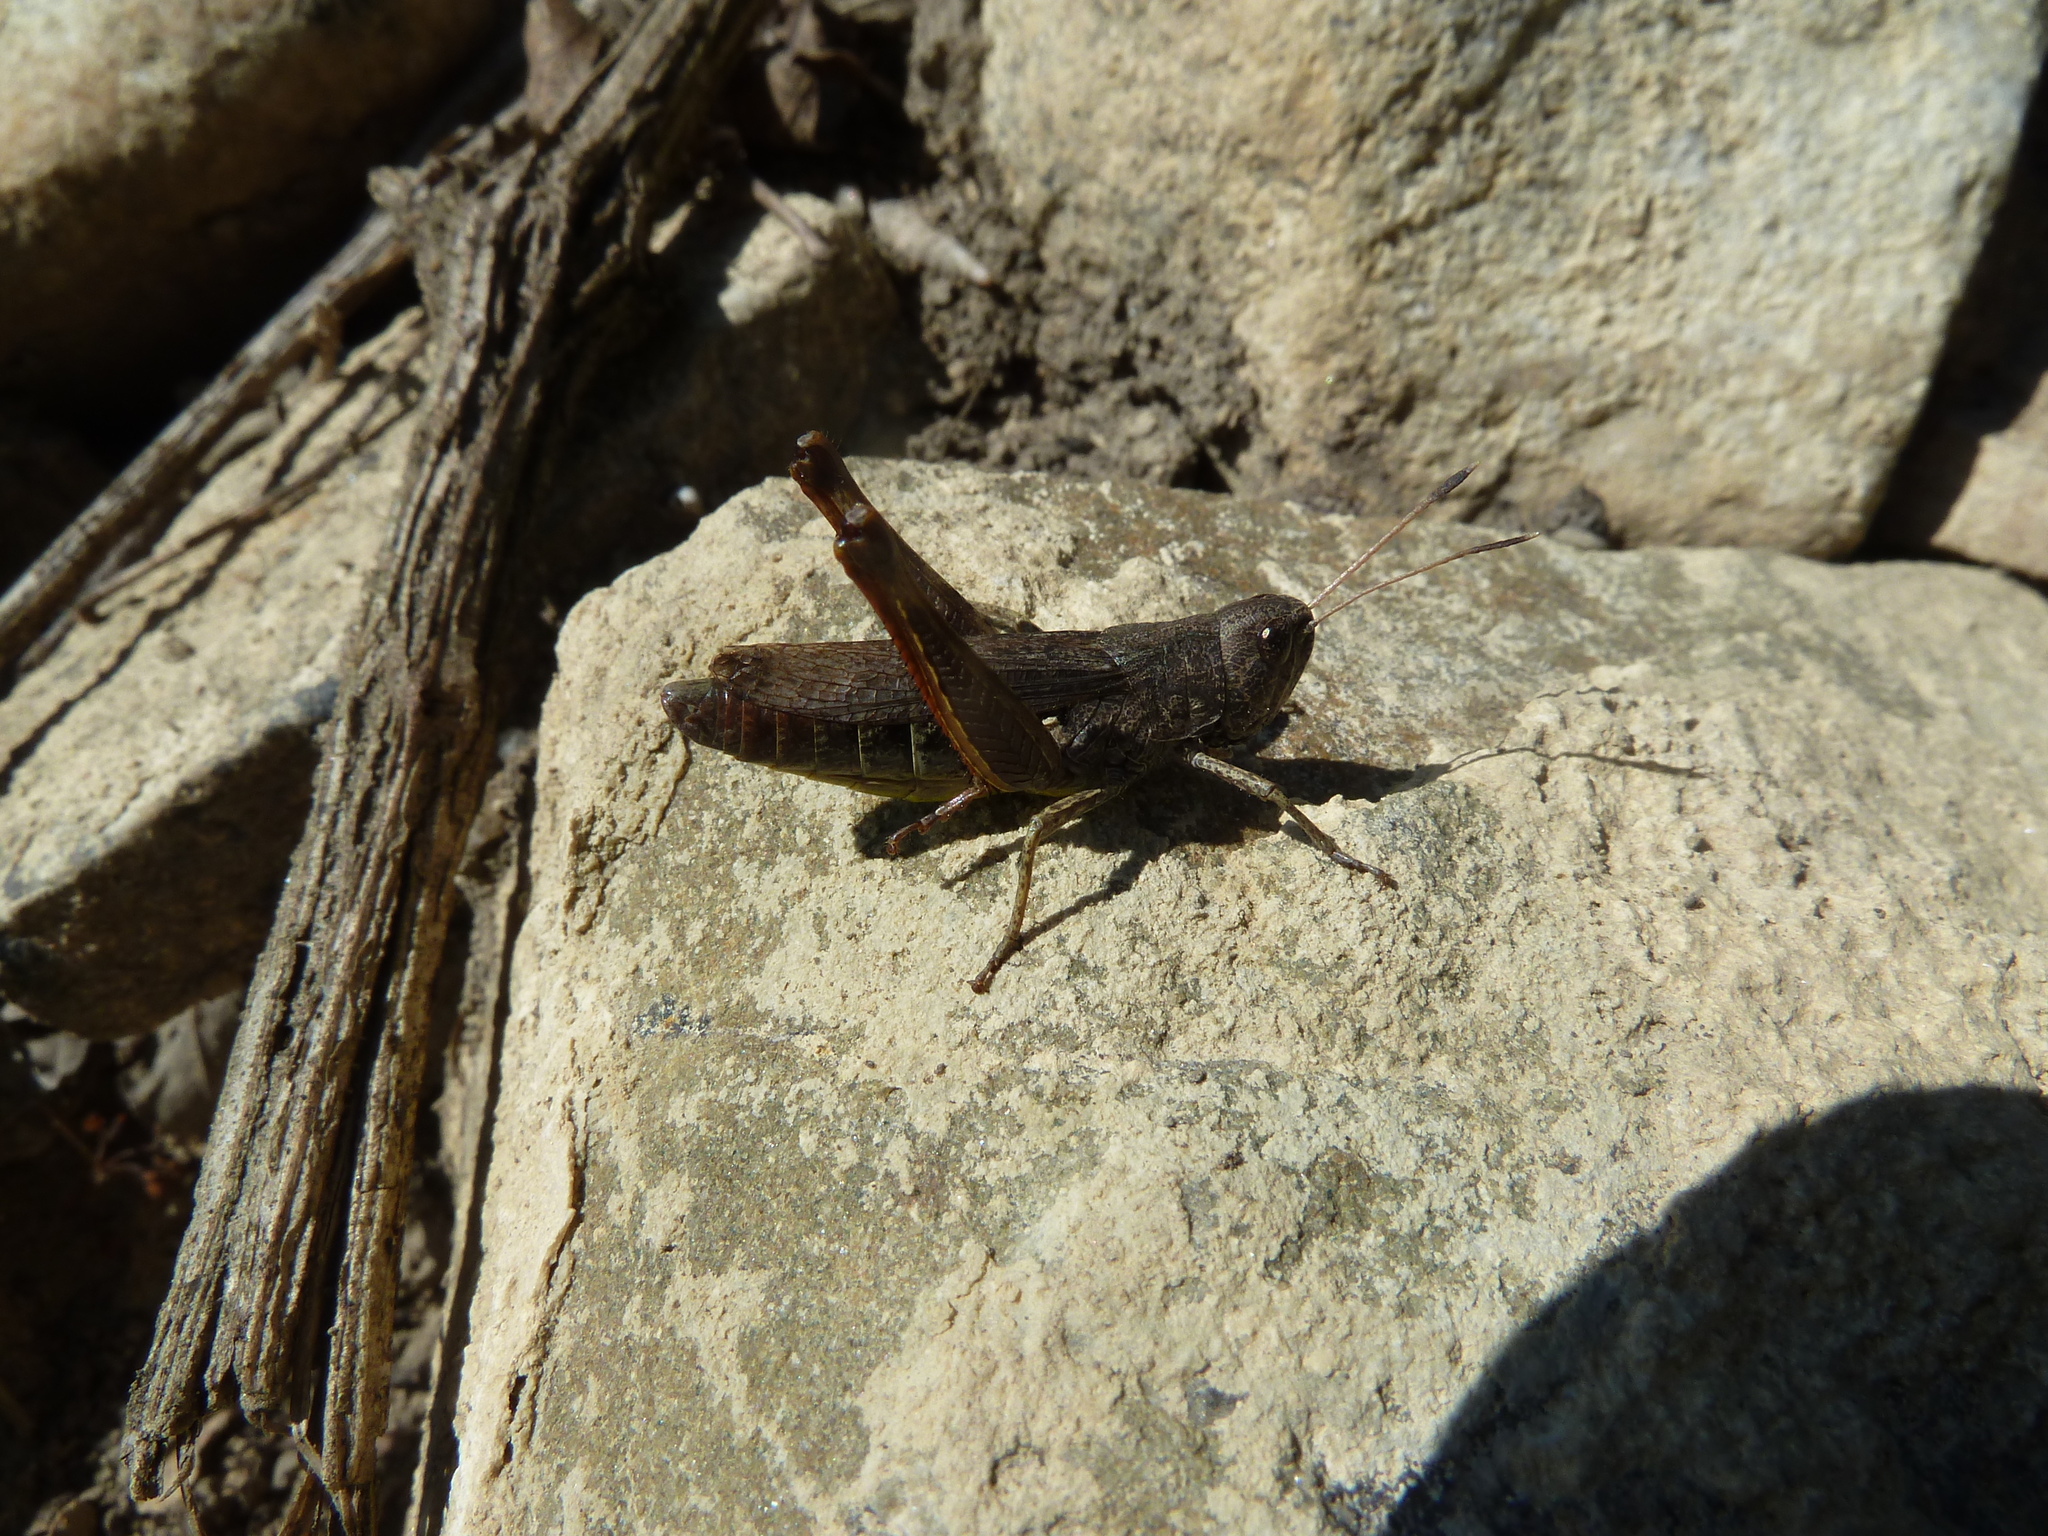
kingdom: Animalia
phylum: Arthropoda
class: Insecta
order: Orthoptera
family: Acrididae
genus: Gomphocerippus
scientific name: Gomphocerippus rufus
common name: Rufous grasshopper
